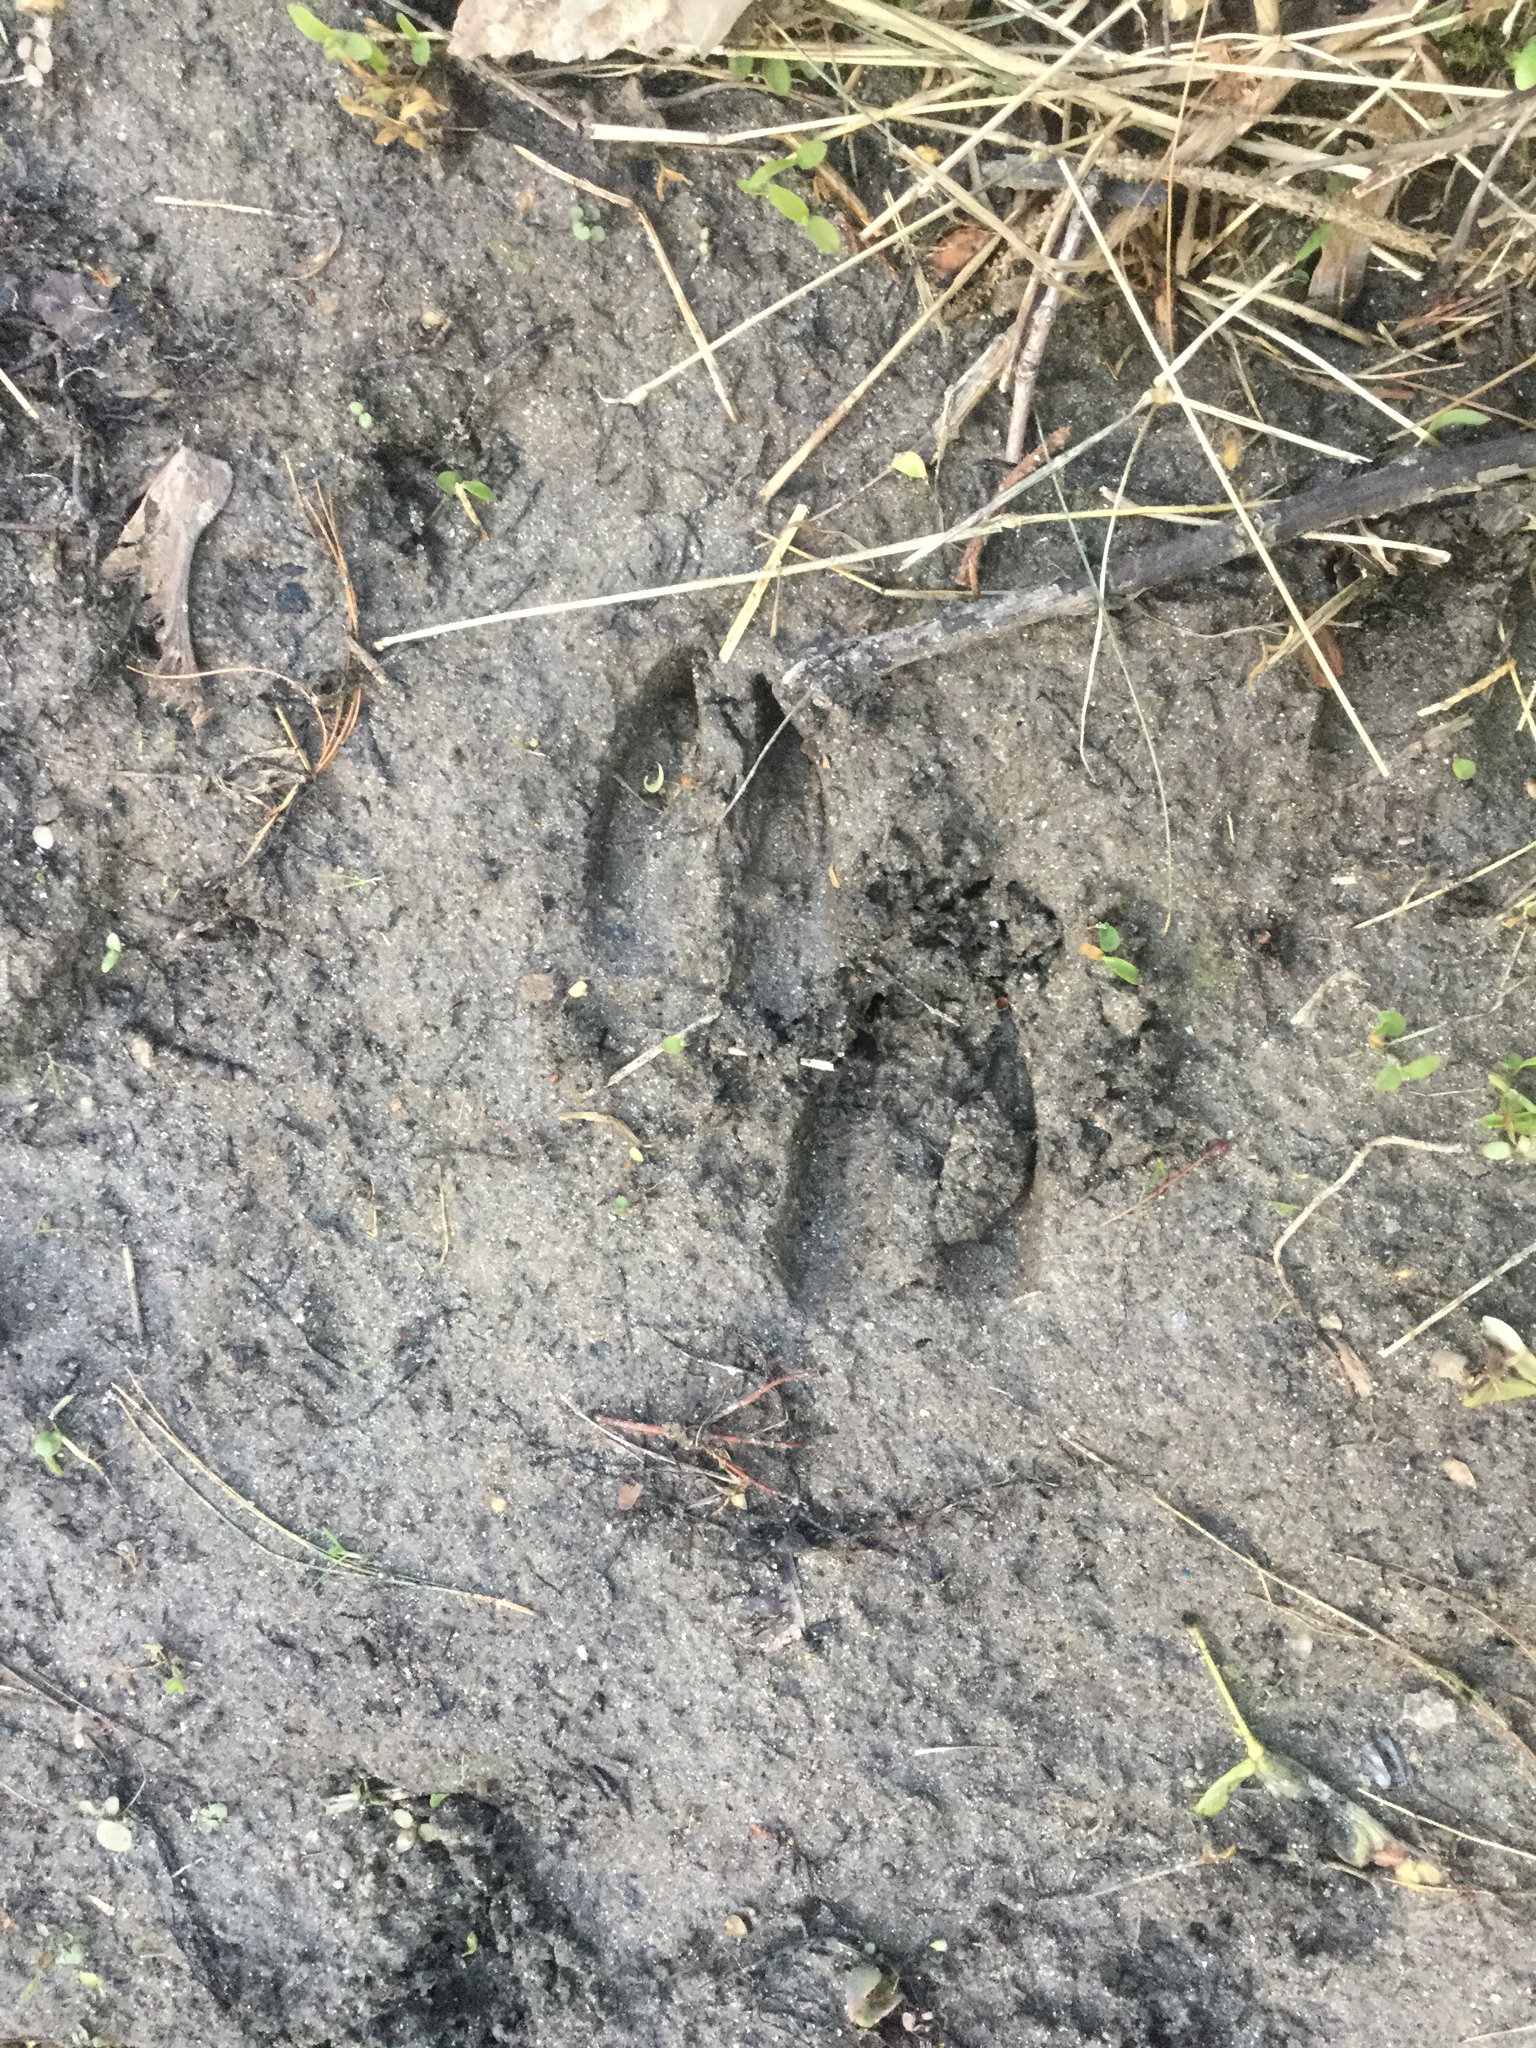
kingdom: Animalia
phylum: Chordata
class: Mammalia
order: Artiodactyla
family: Cervidae
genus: Odocoileus
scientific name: Odocoileus virginianus
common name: White-tailed deer
